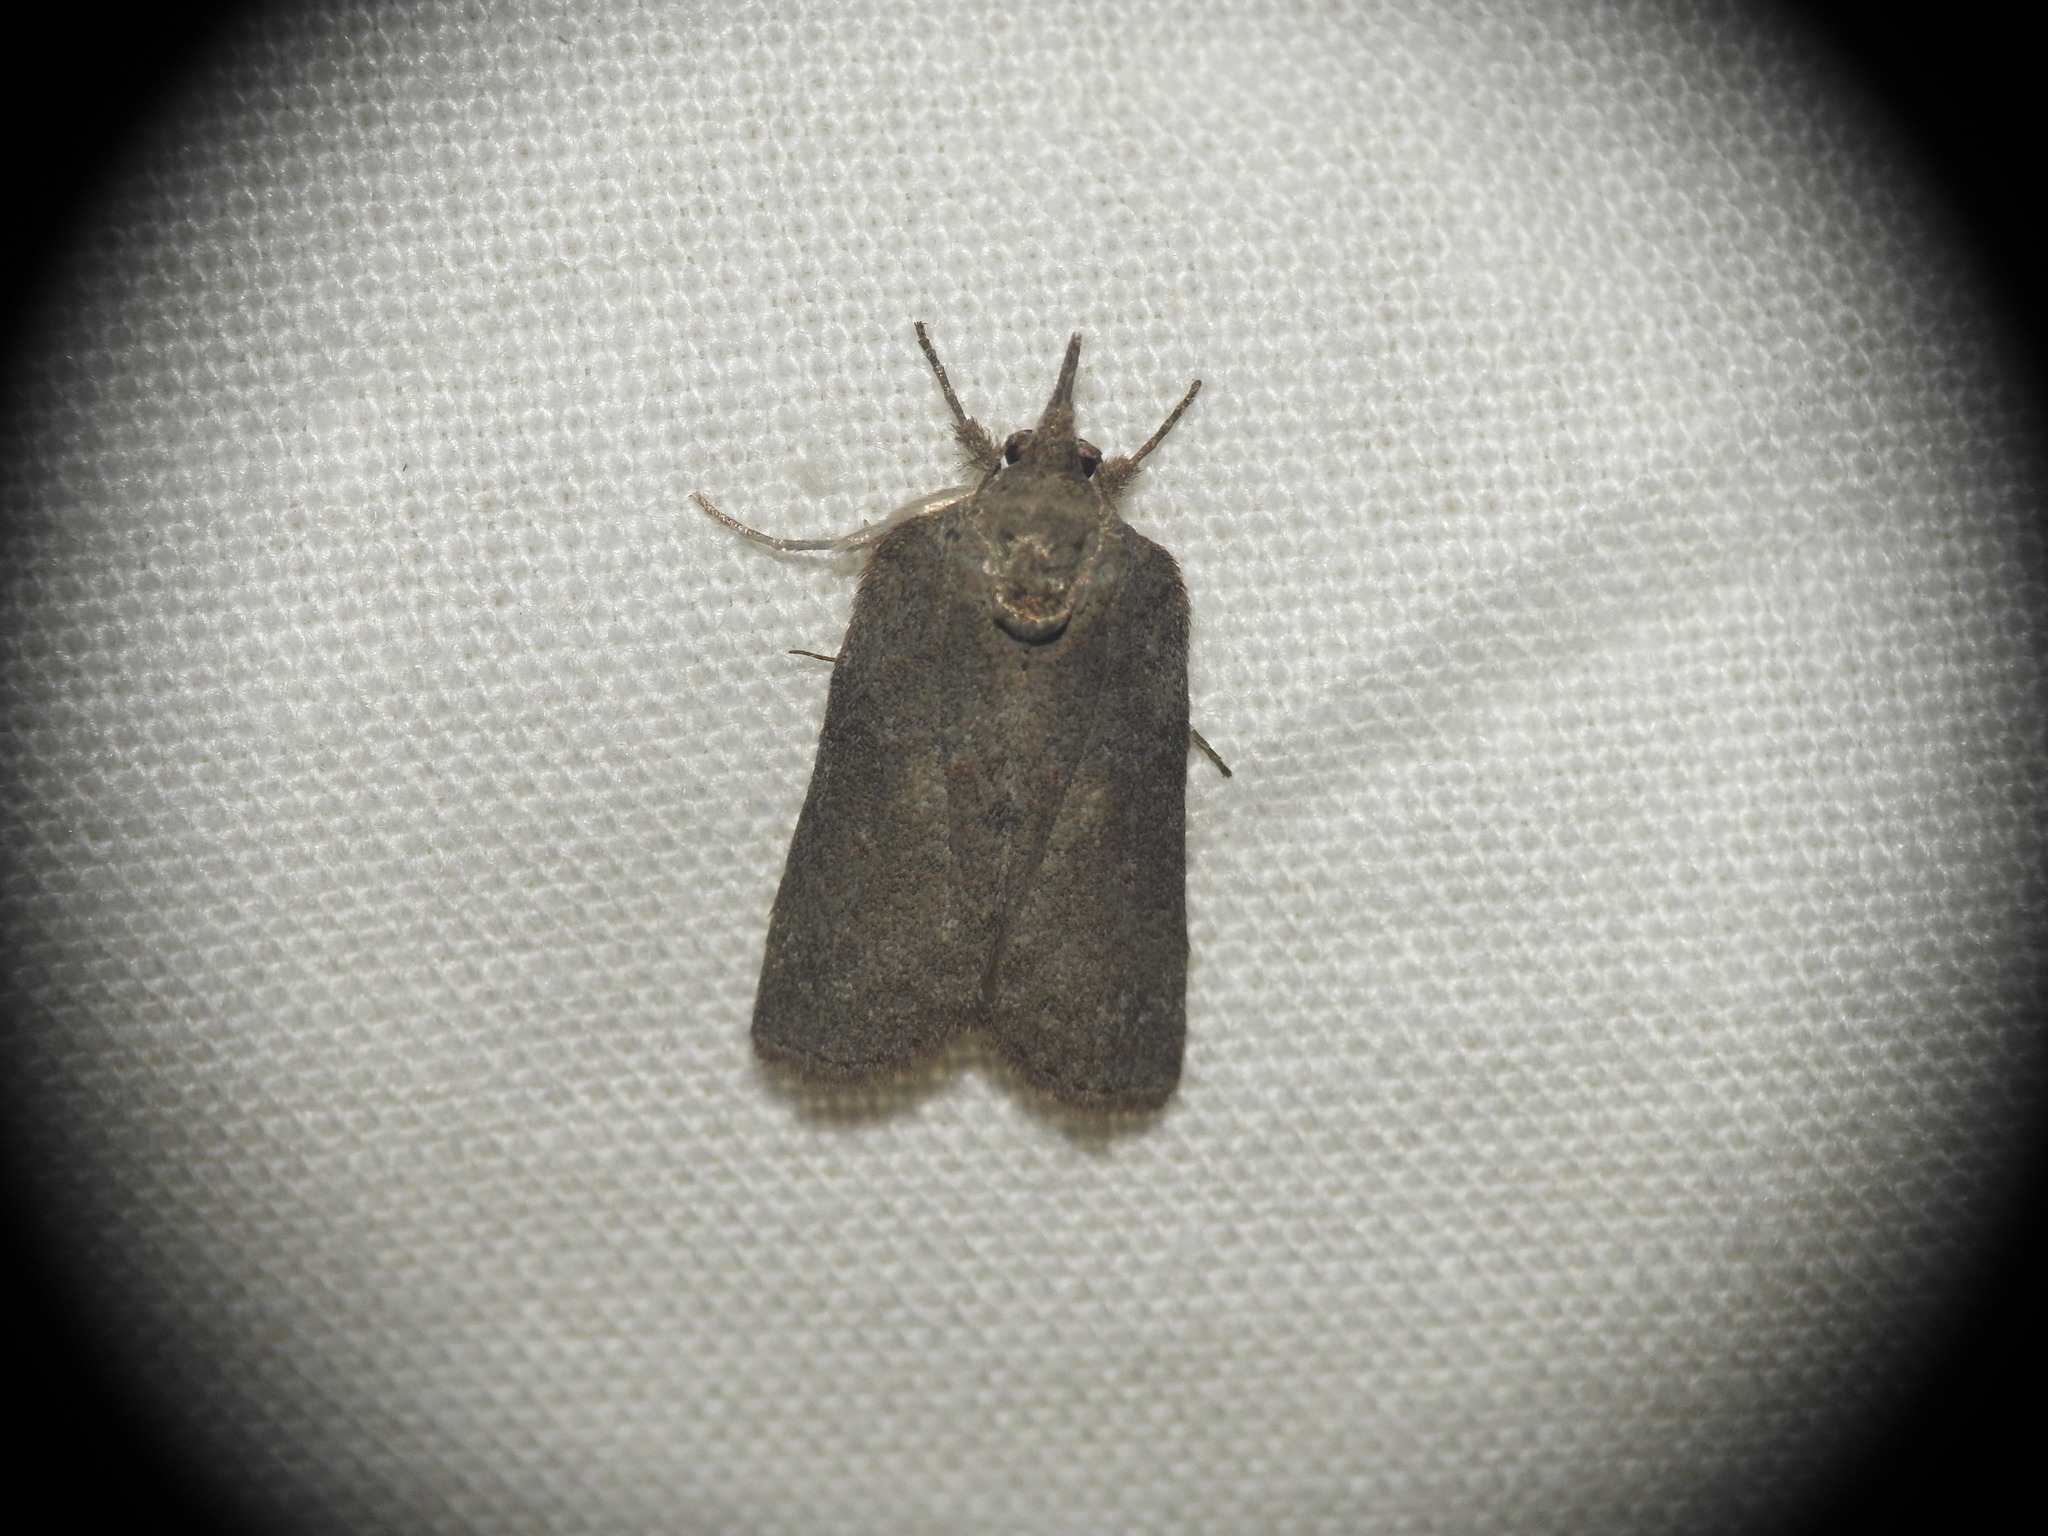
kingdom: Animalia
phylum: Arthropoda
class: Insecta
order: Lepidoptera
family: Nolidae
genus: Nycteola
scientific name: Nycteola revayana
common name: Oak nycteoline
